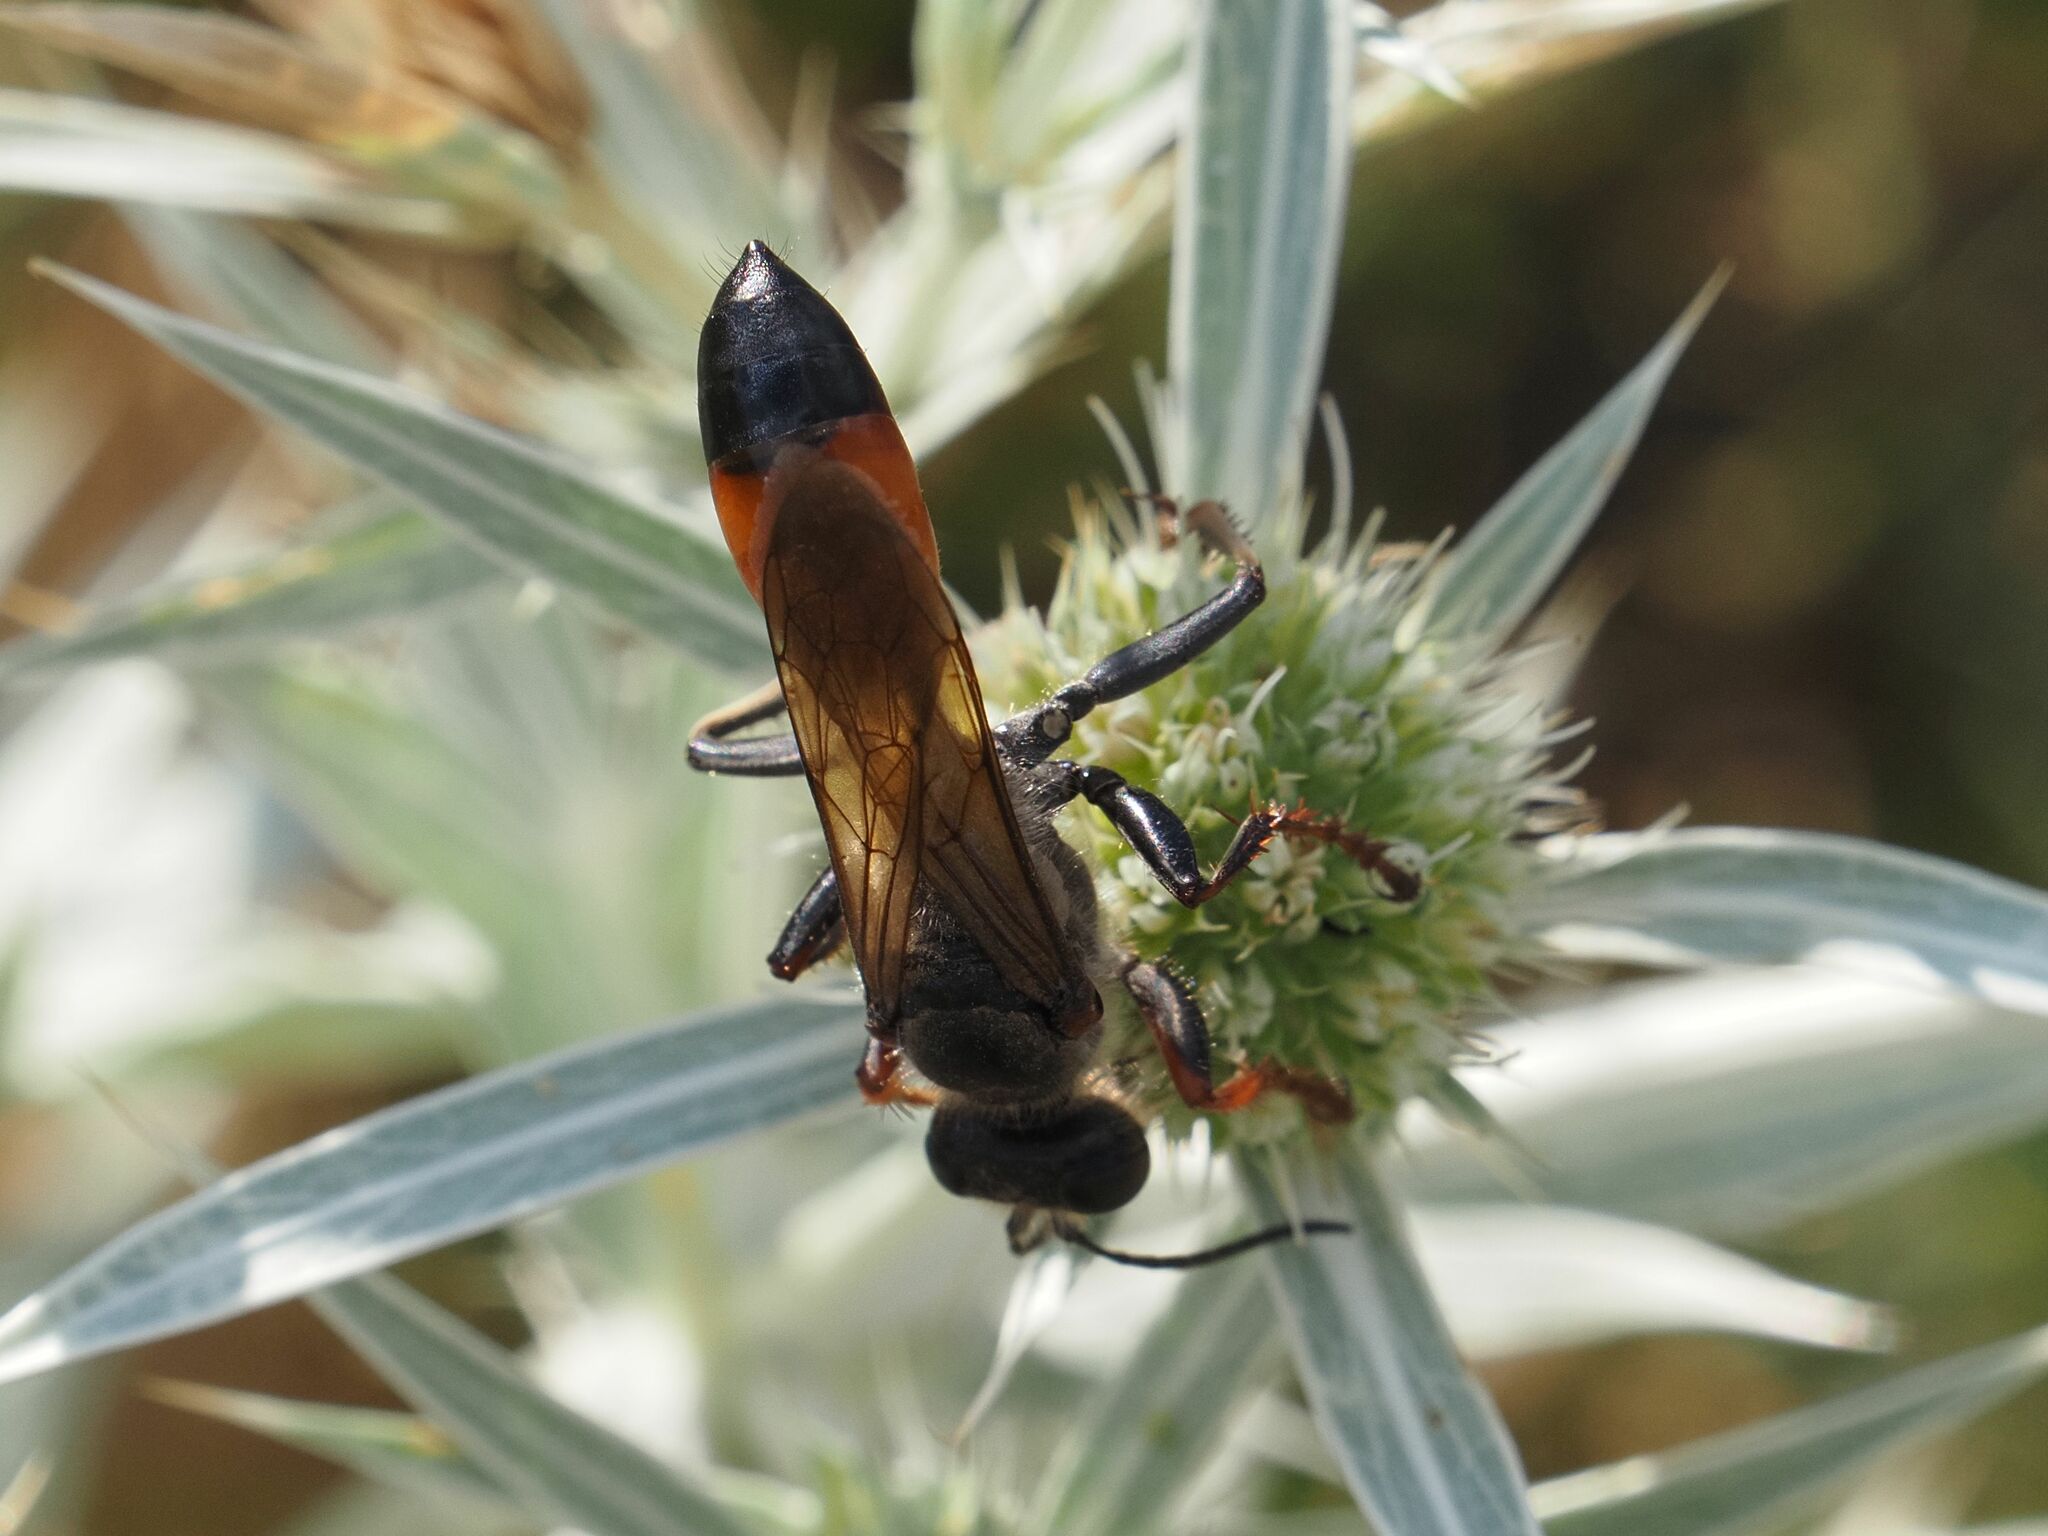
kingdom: Animalia
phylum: Arthropoda
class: Insecta
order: Hymenoptera
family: Sphecidae
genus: Sphex
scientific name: Sphex funerarius
